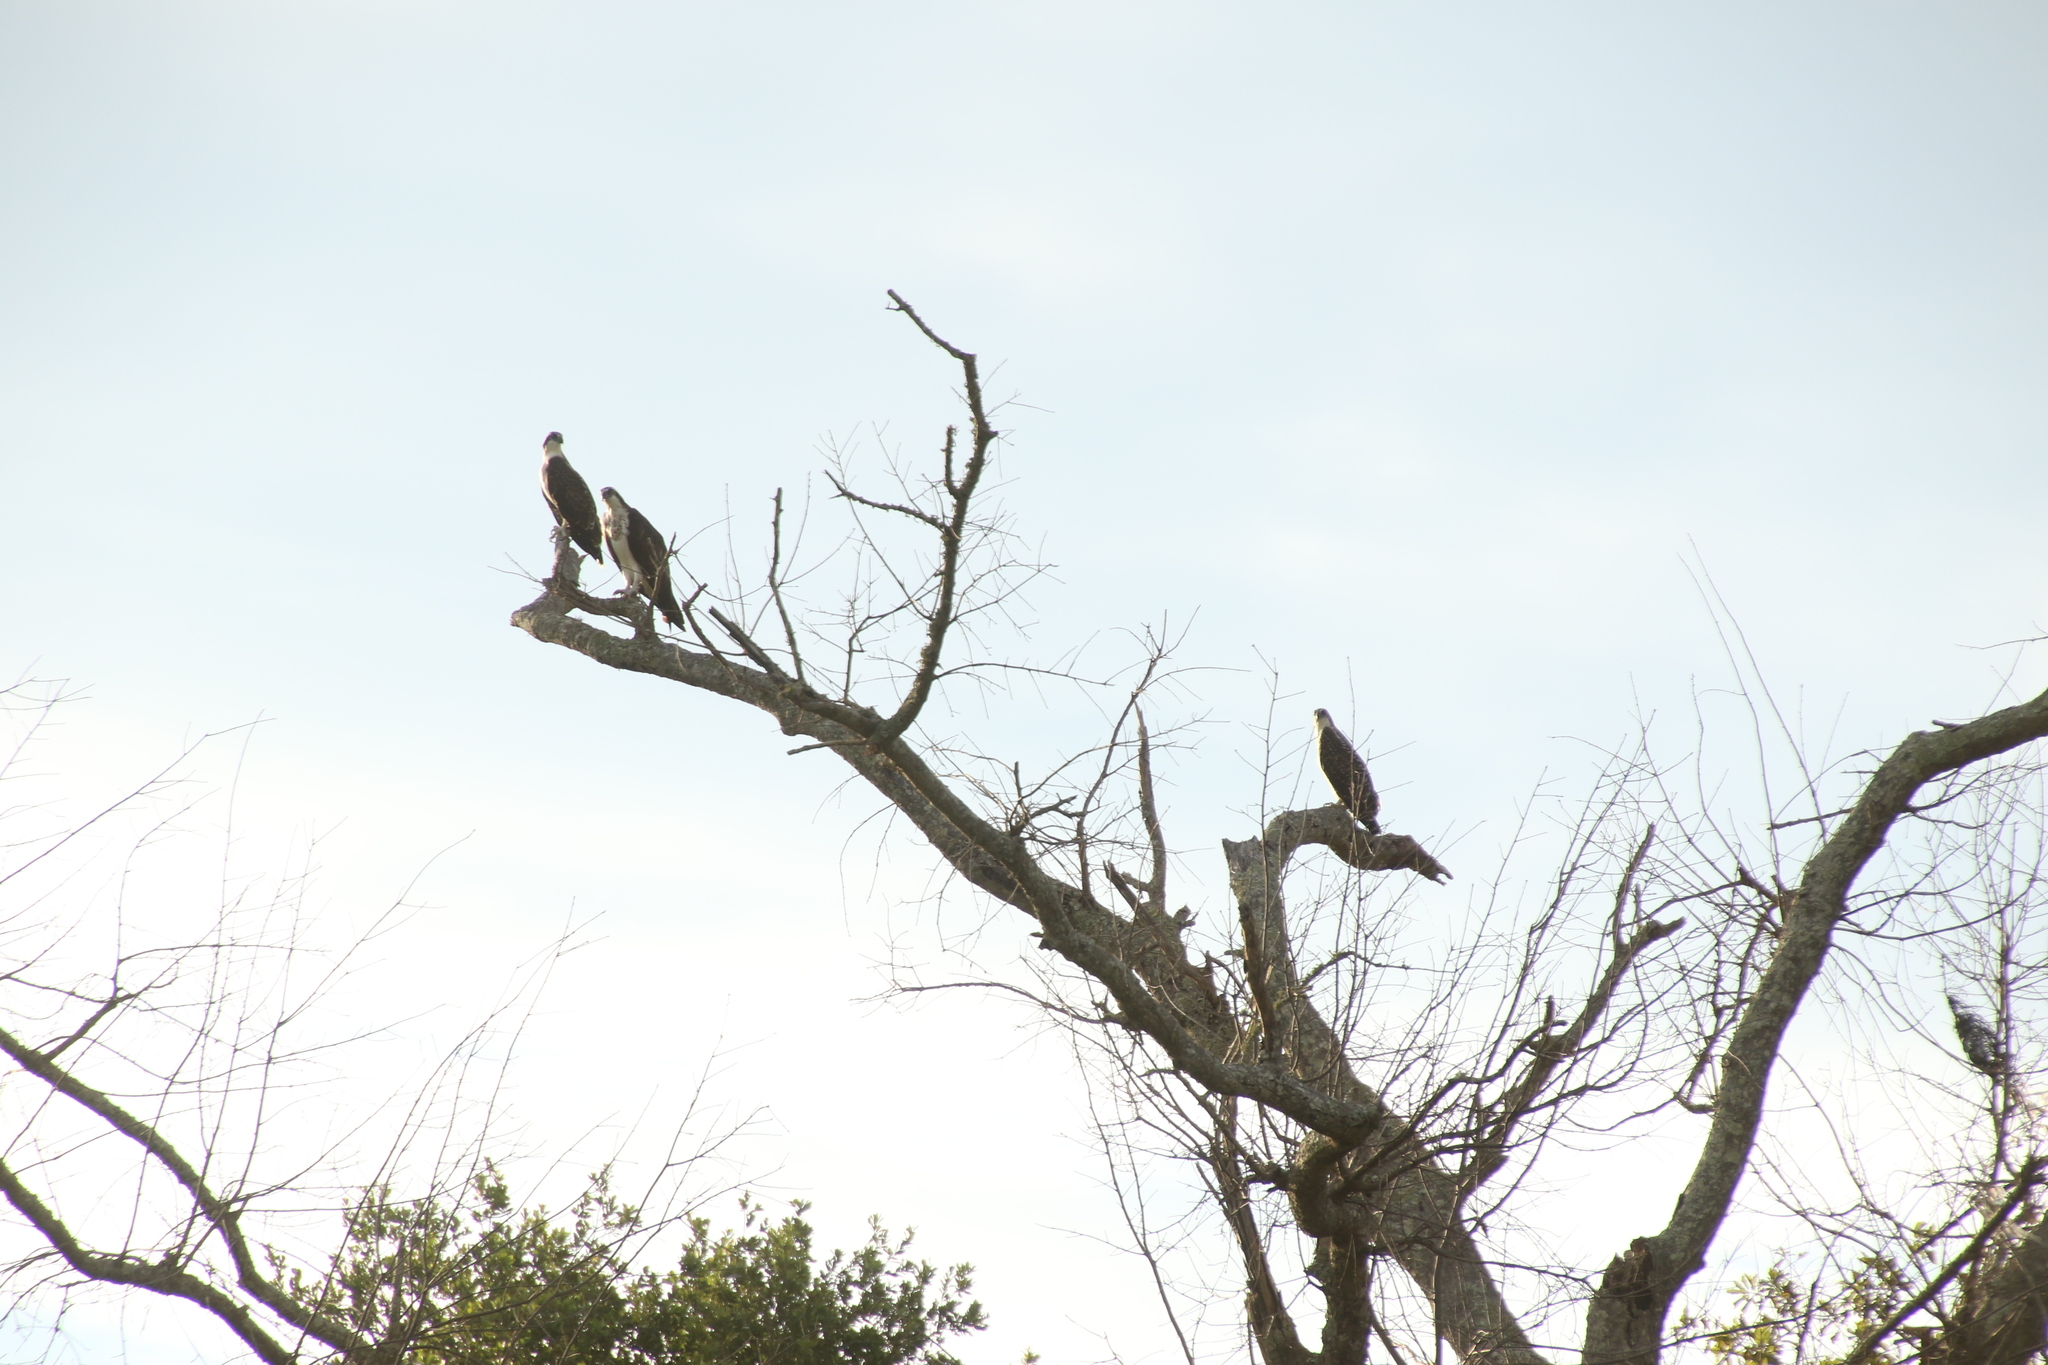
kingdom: Animalia
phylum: Chordata
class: Aves
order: Accipitriformes
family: Pandionidae
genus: Pandion
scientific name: Pandion haliaetus
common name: Osprey
